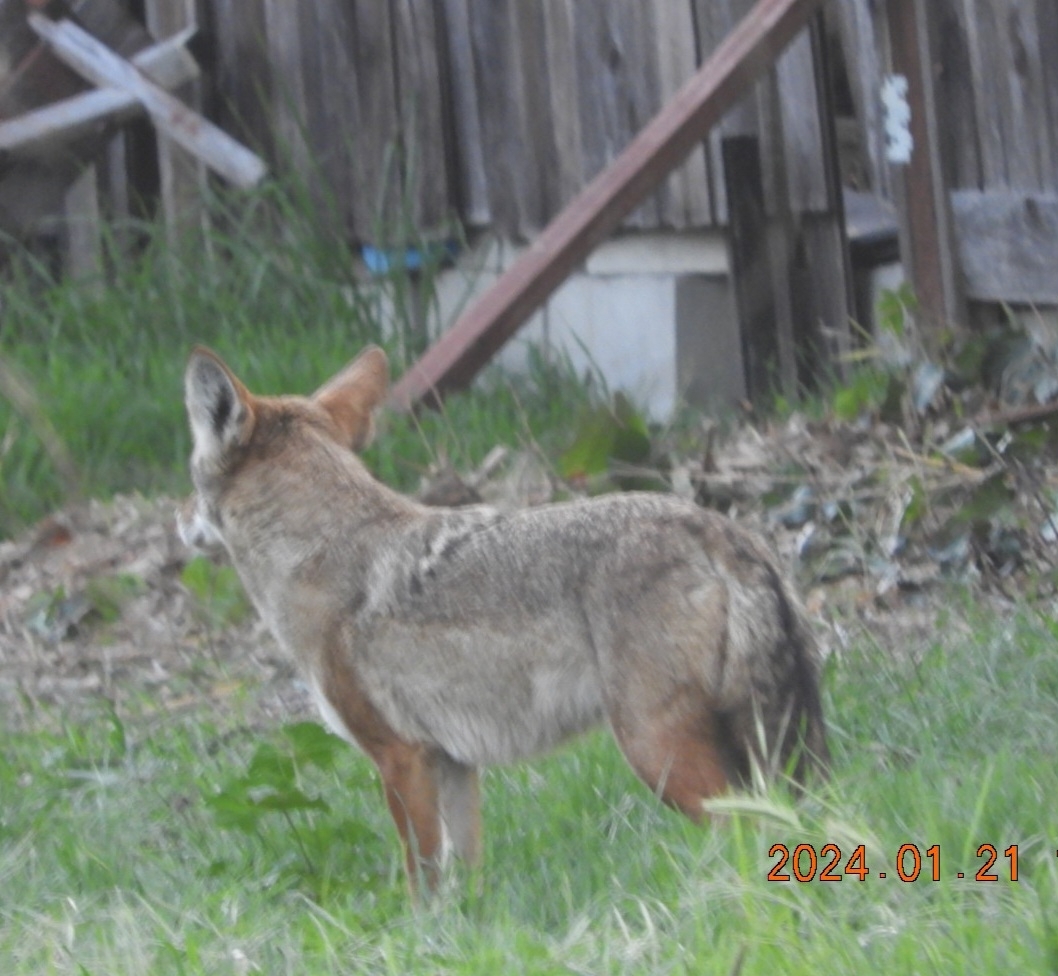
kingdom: Animalia
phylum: Chordata
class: Mammalia
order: Carnivora
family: Canidae
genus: Canis
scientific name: Canis latrans
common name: Coyote
